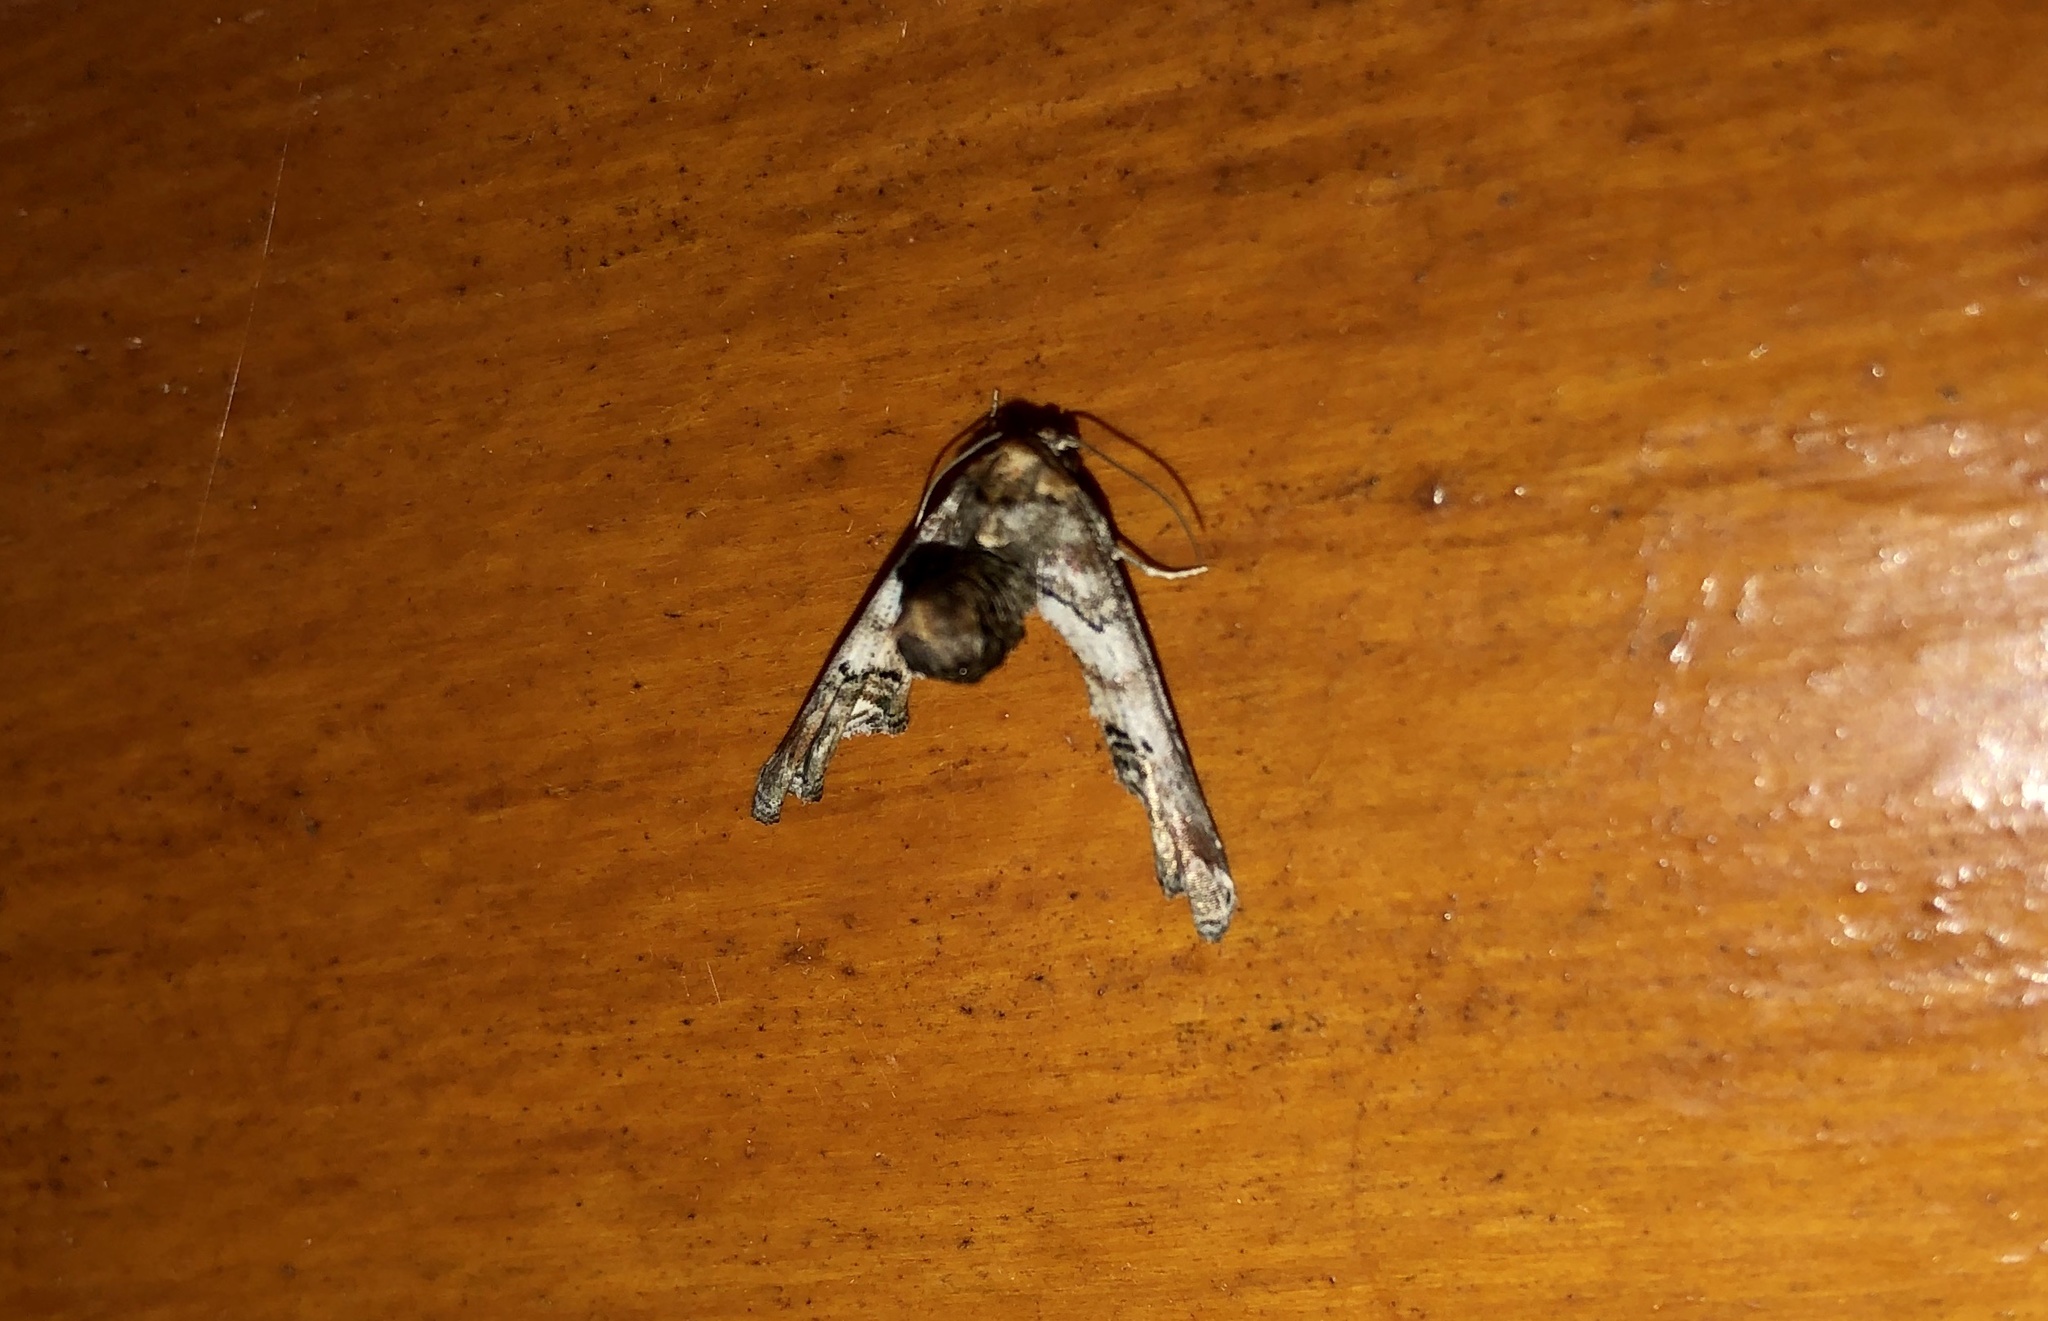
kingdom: Animalia
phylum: Arthropoda
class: Insecta
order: Lepidoptera
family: Euteliidae
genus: Marathyssa
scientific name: Marathyssa inficita
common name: Dark marathyssa moth
